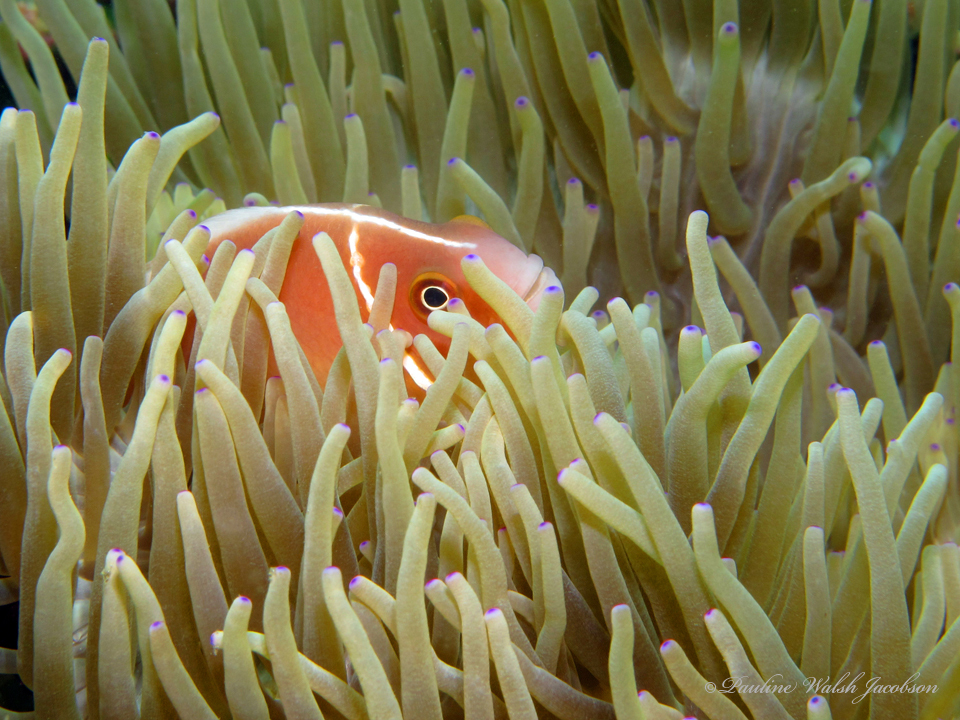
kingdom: Animalia
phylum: Chordata
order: Perciformes
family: Pomacentridae
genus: Amphiprion
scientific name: Amphiprion perideraion
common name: Pink anemonefish
